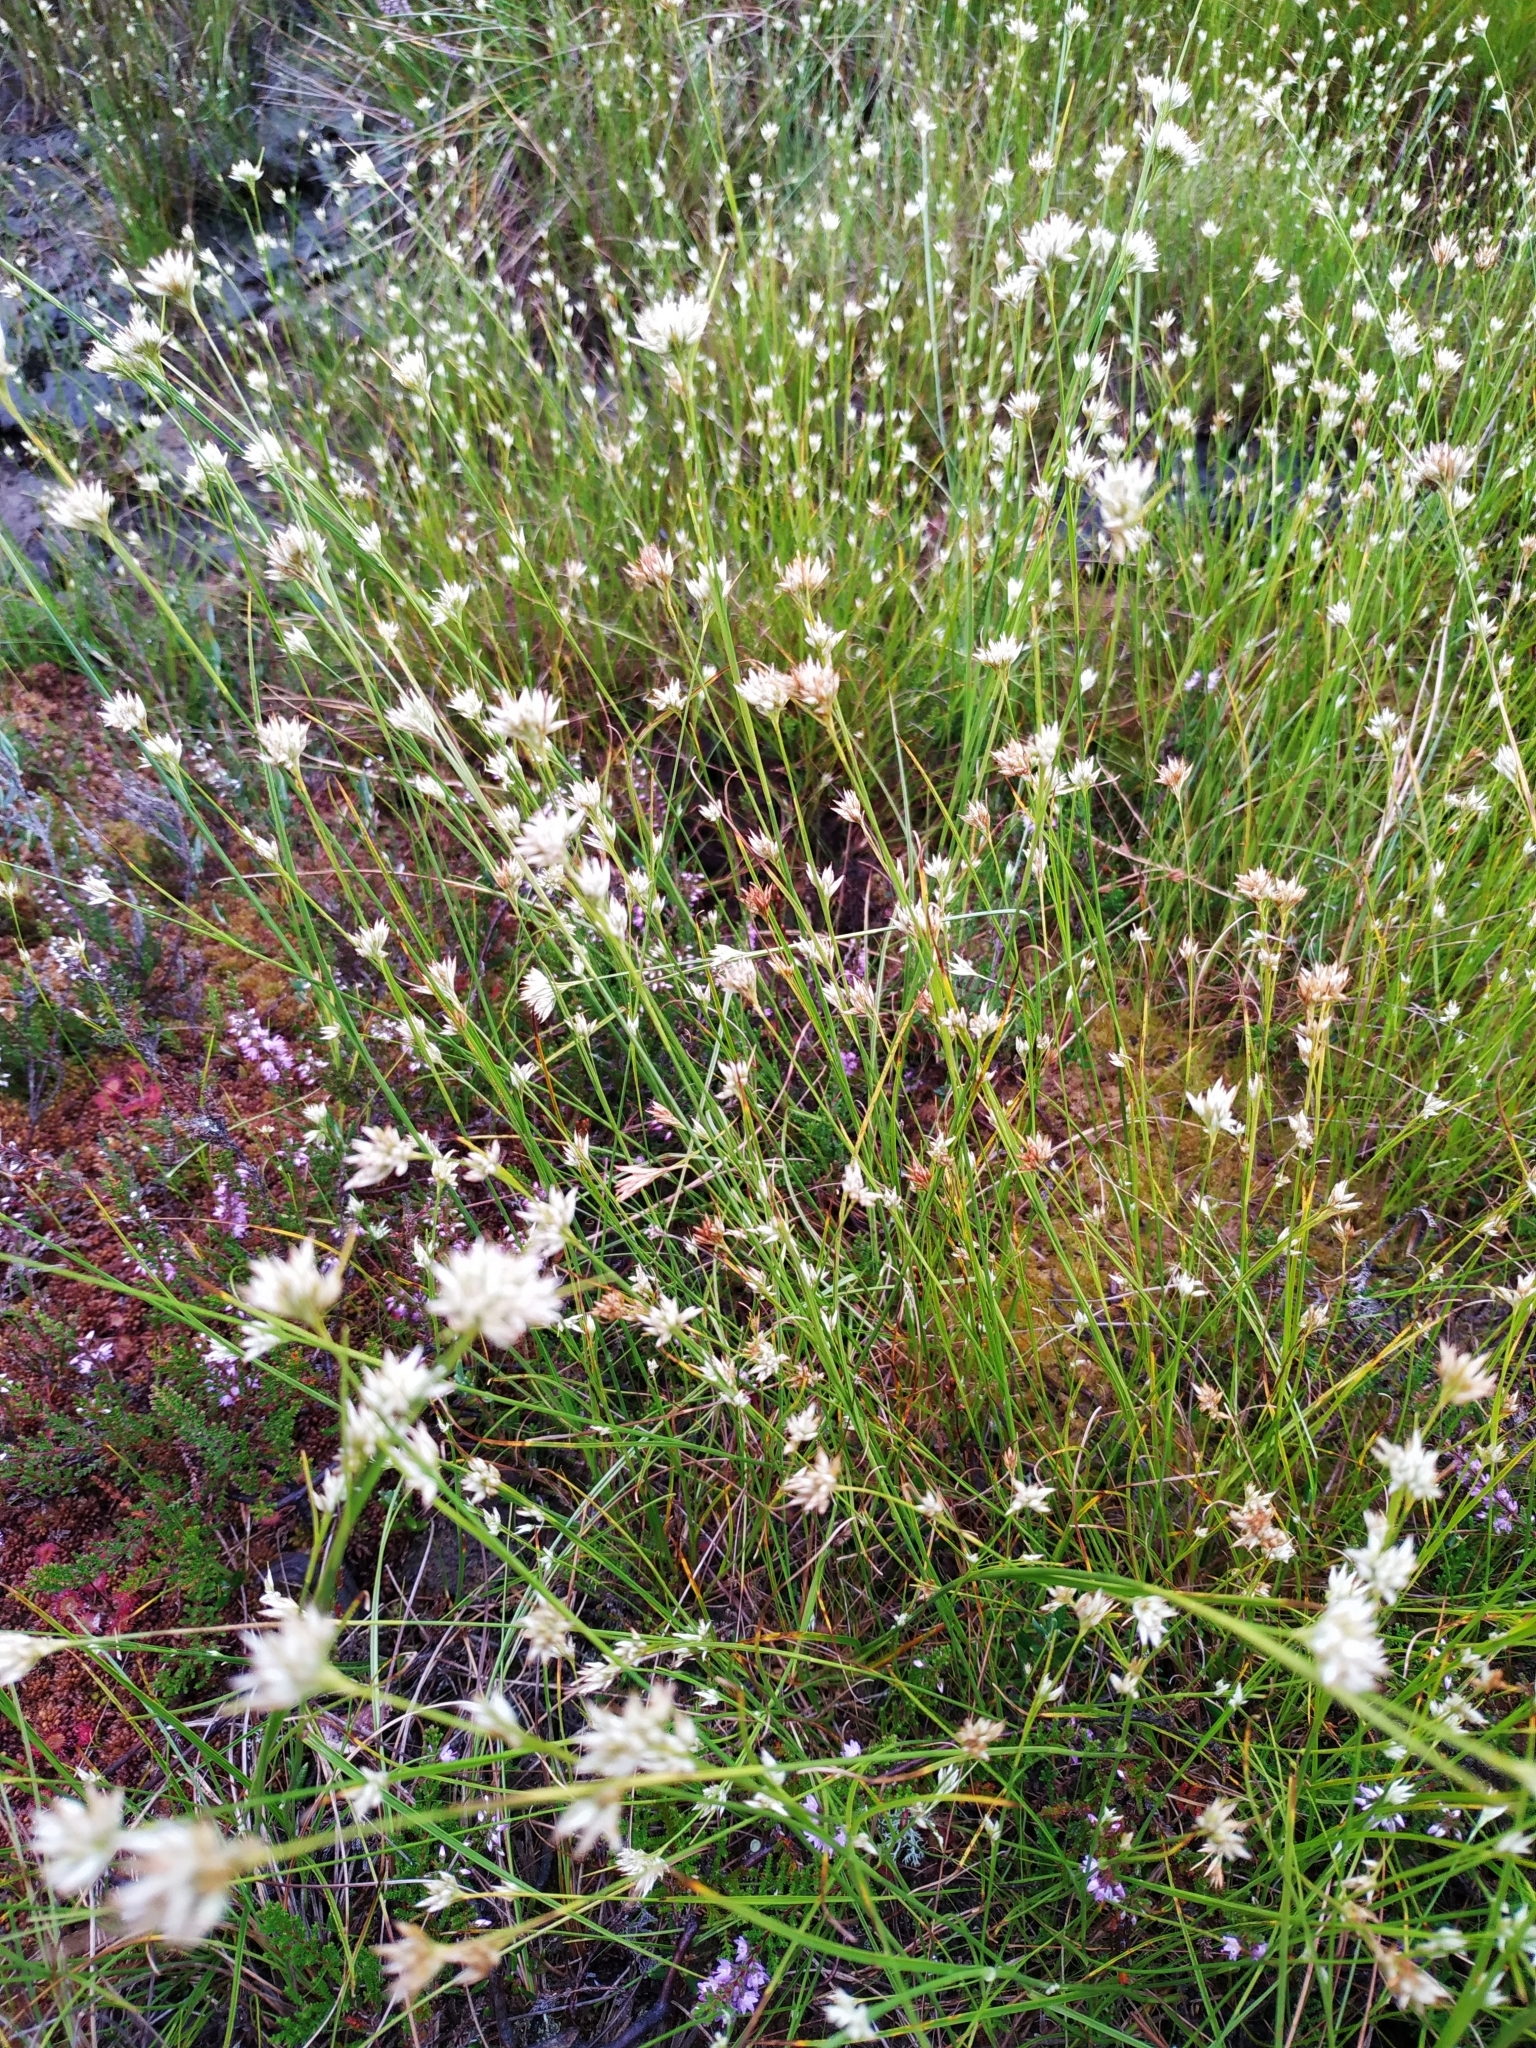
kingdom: Plantae
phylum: Tracheophyta
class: Liliopsida
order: Poales
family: Cyperaceae
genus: Rhynchospora
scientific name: Rhynchospora alba
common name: White beak-sedge
